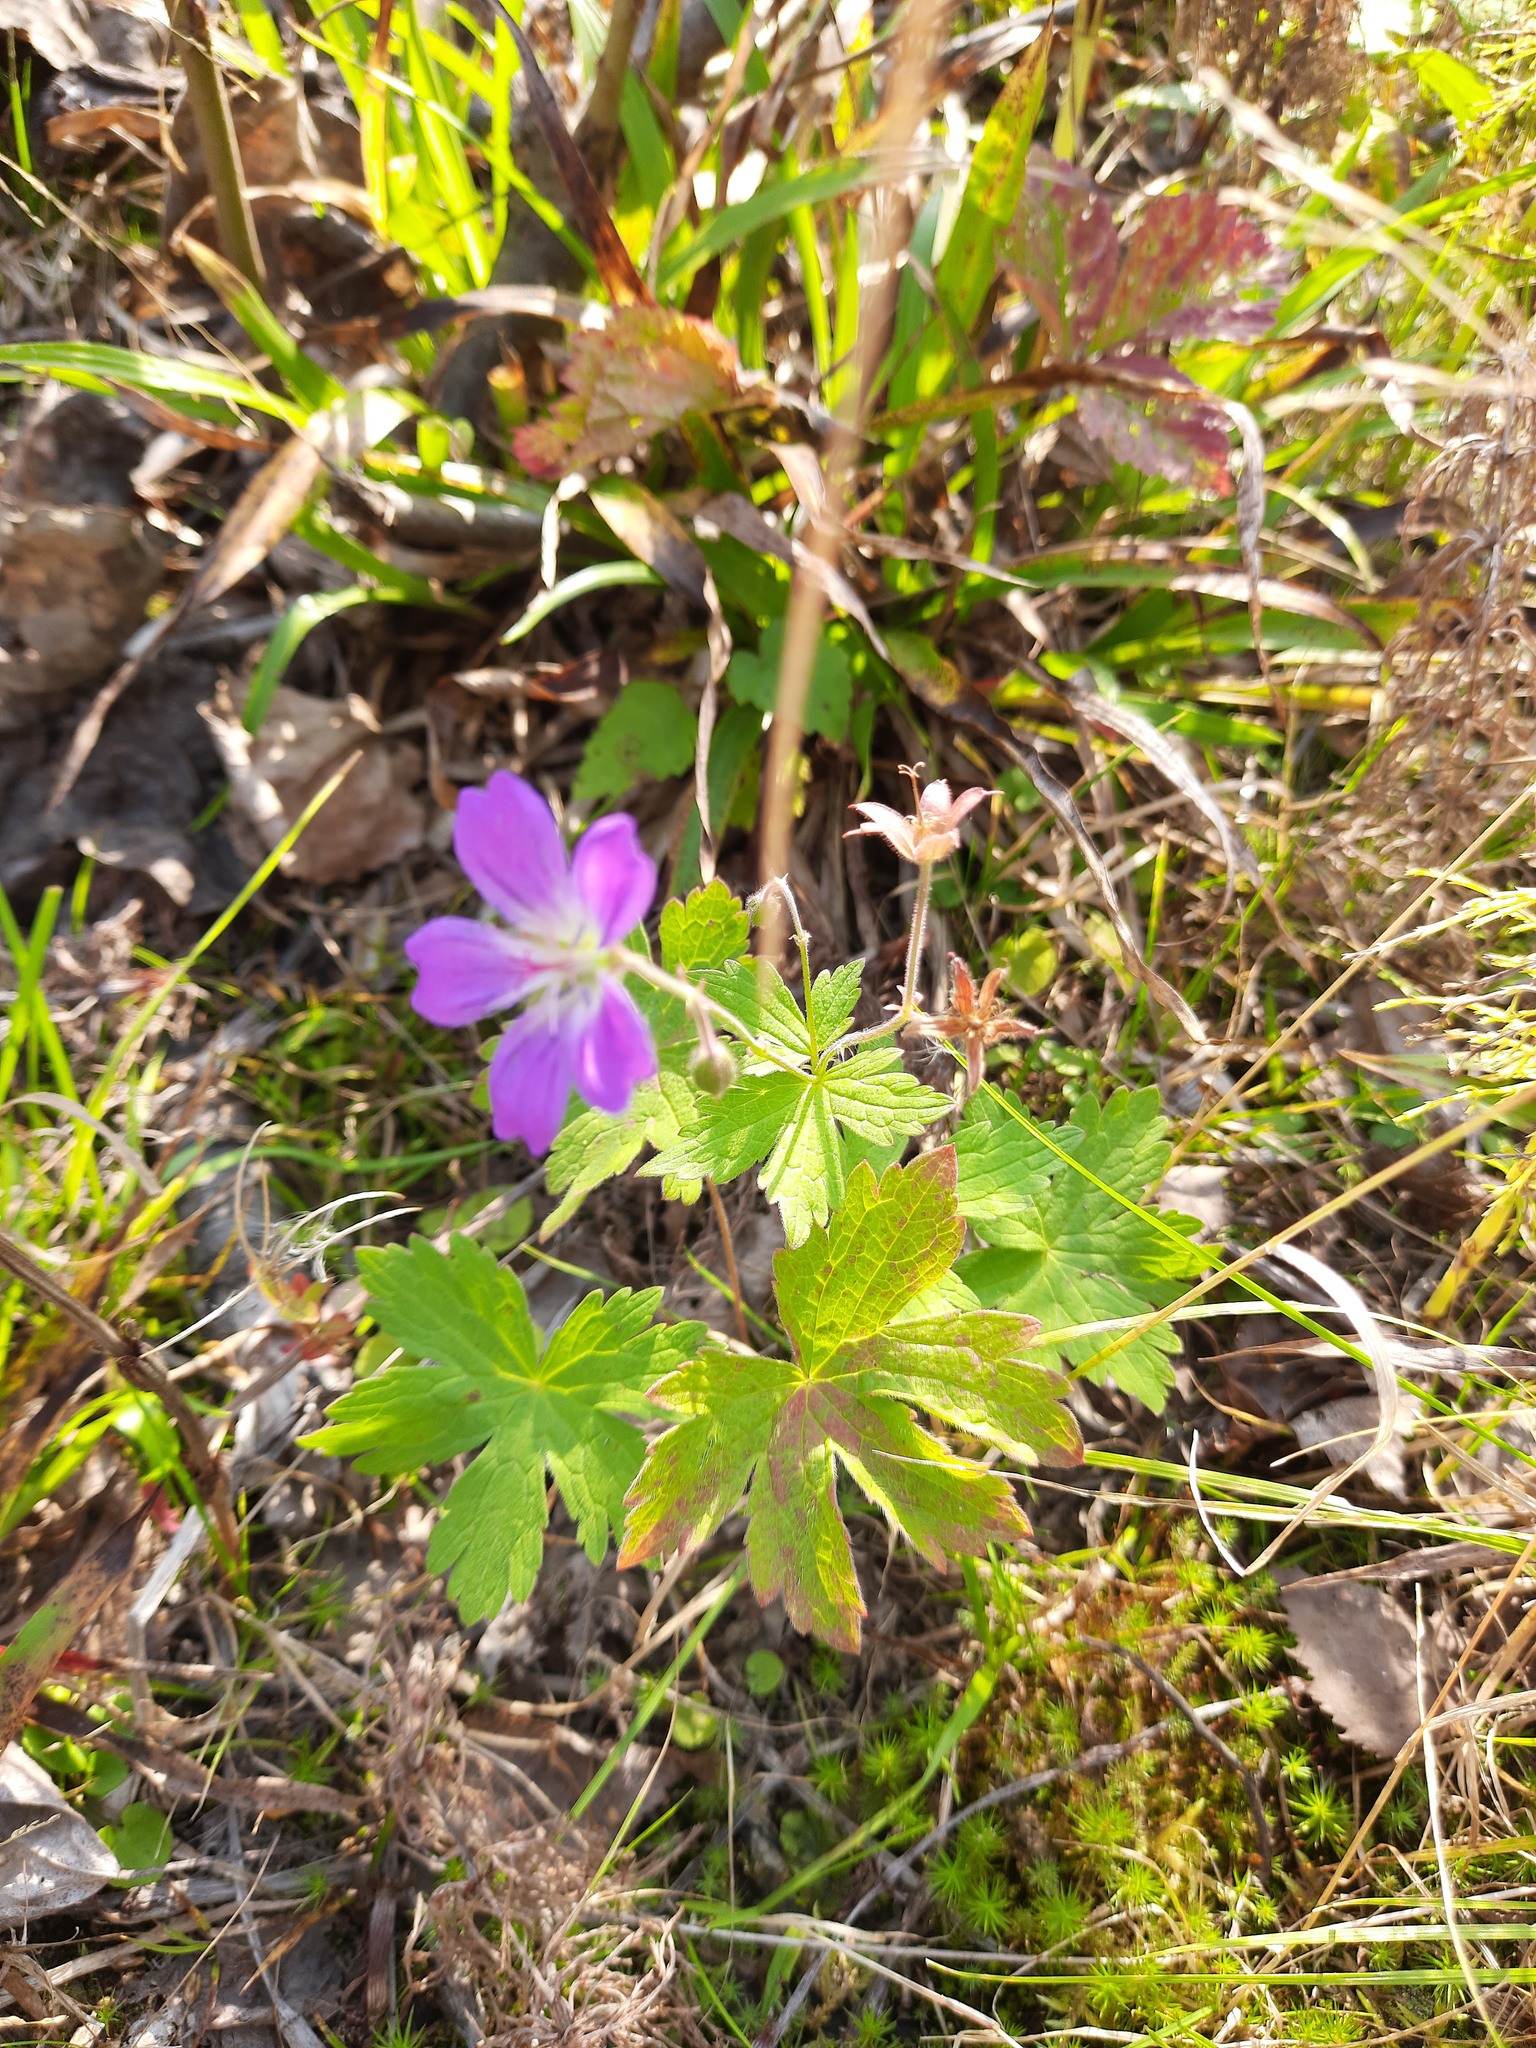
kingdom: Plantae
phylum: Tracheophyta
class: Magnoliopsida
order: Geraniales
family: Geraniaceae
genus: Geranium
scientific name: Geranium sylvaticum
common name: Wood crane's-bill
